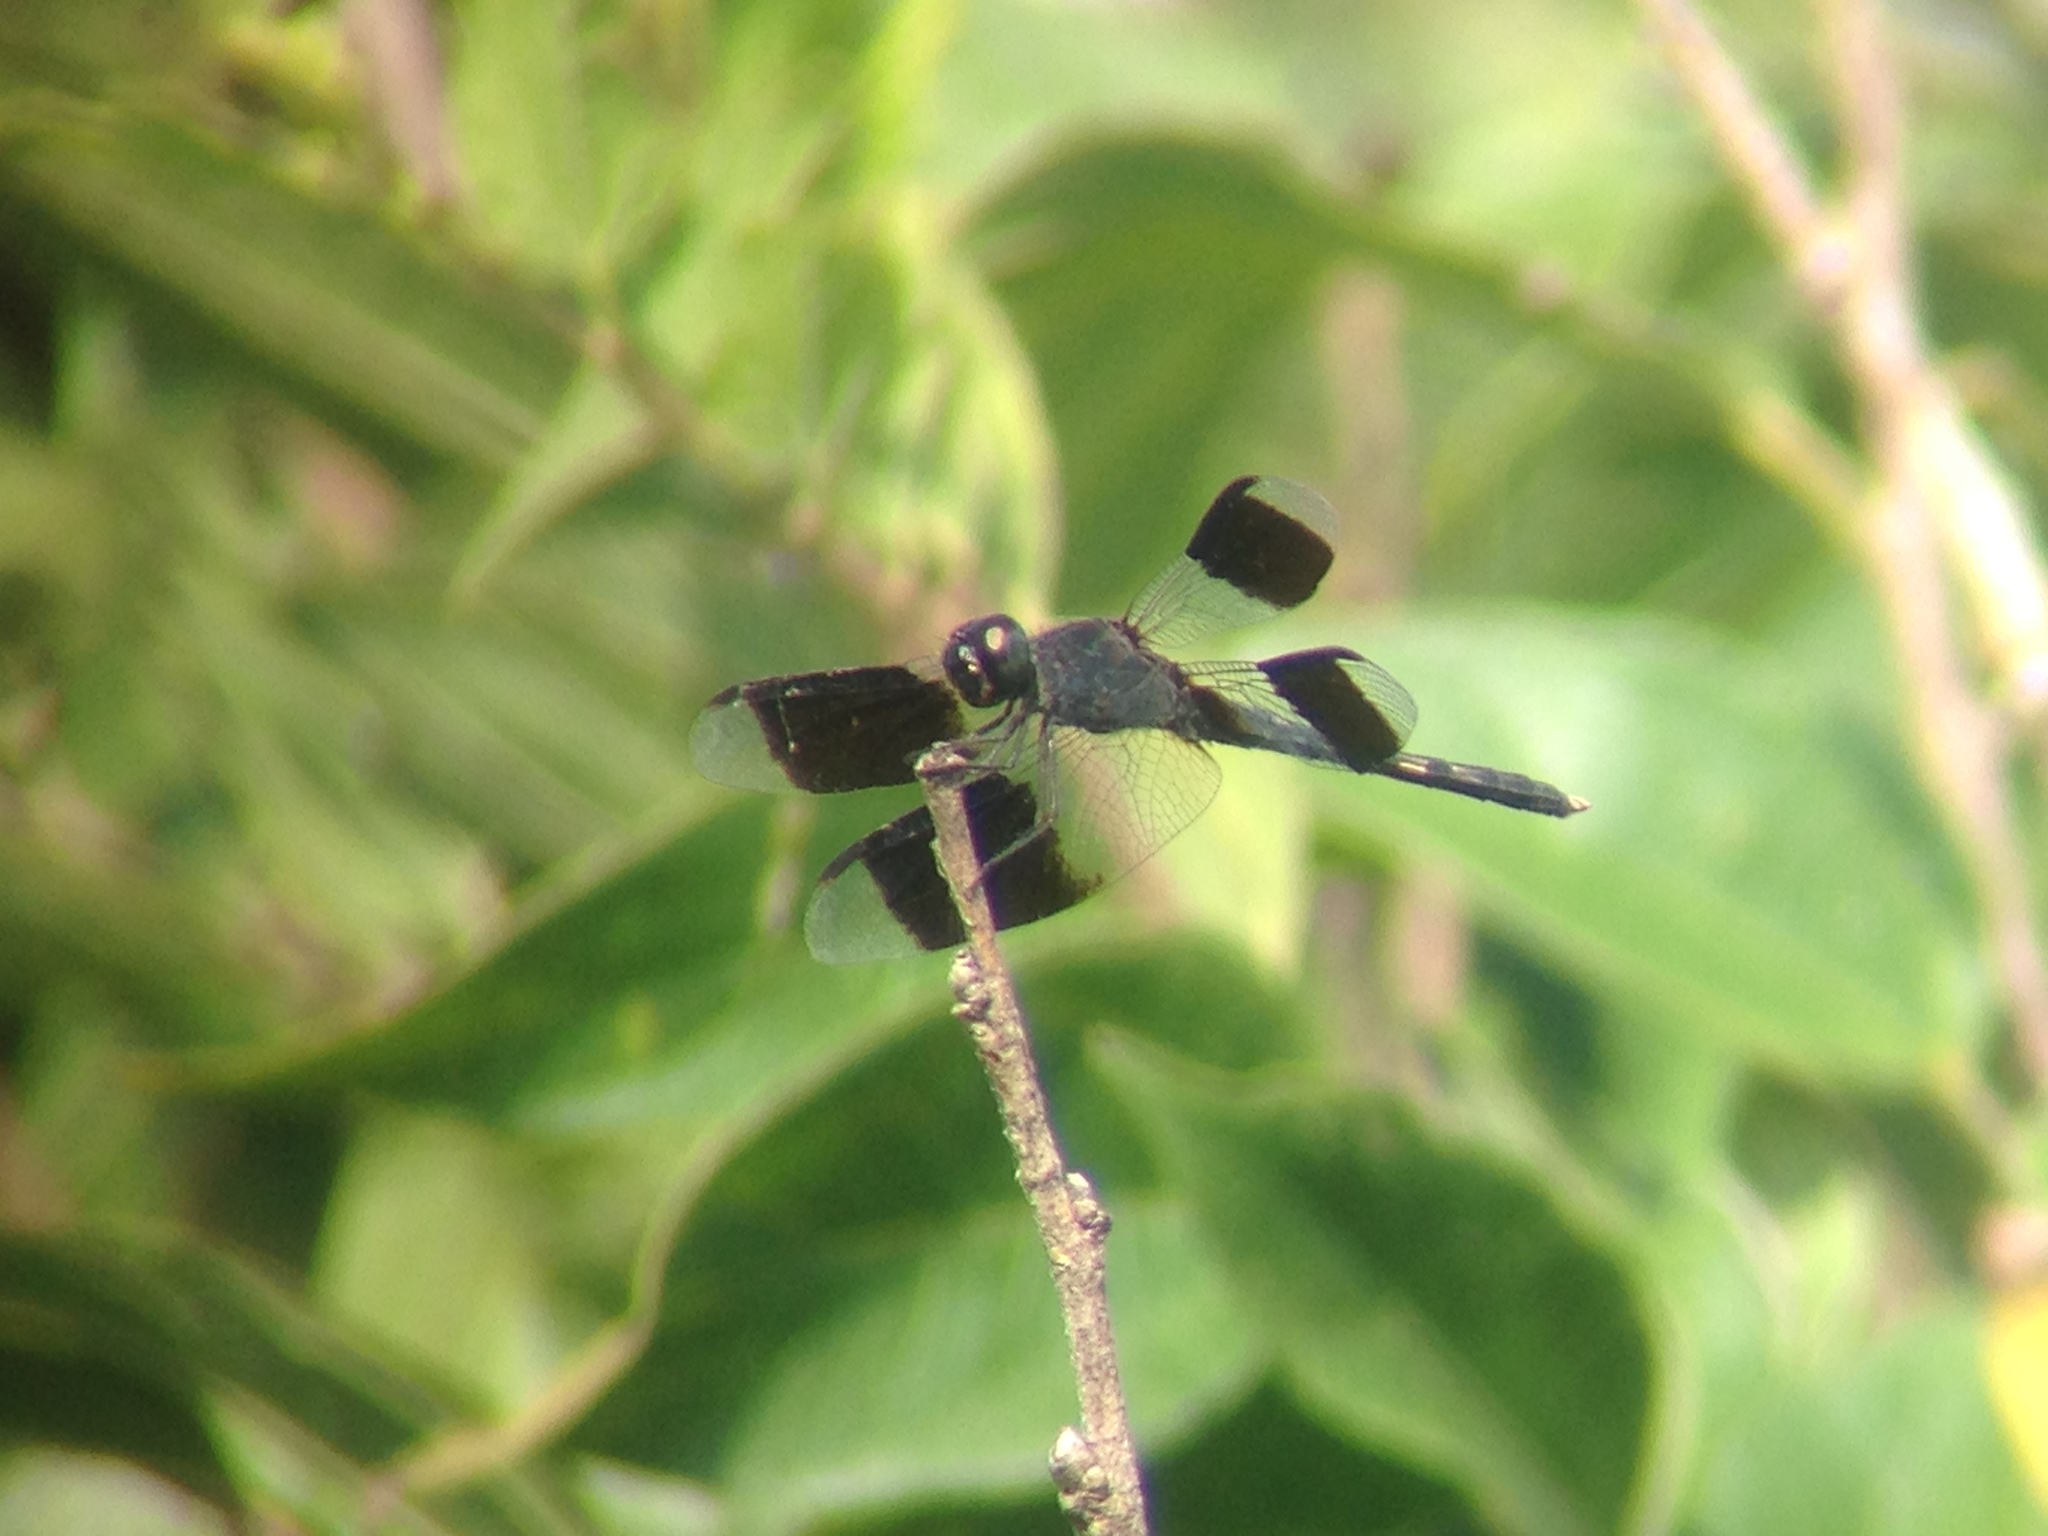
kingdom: Animalia
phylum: Arthropoda
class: Insecta
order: Odonata
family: Libellulidae
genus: Erythrodiplax
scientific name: Erythrodiplax umbrata
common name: Band-winged dragonlet
